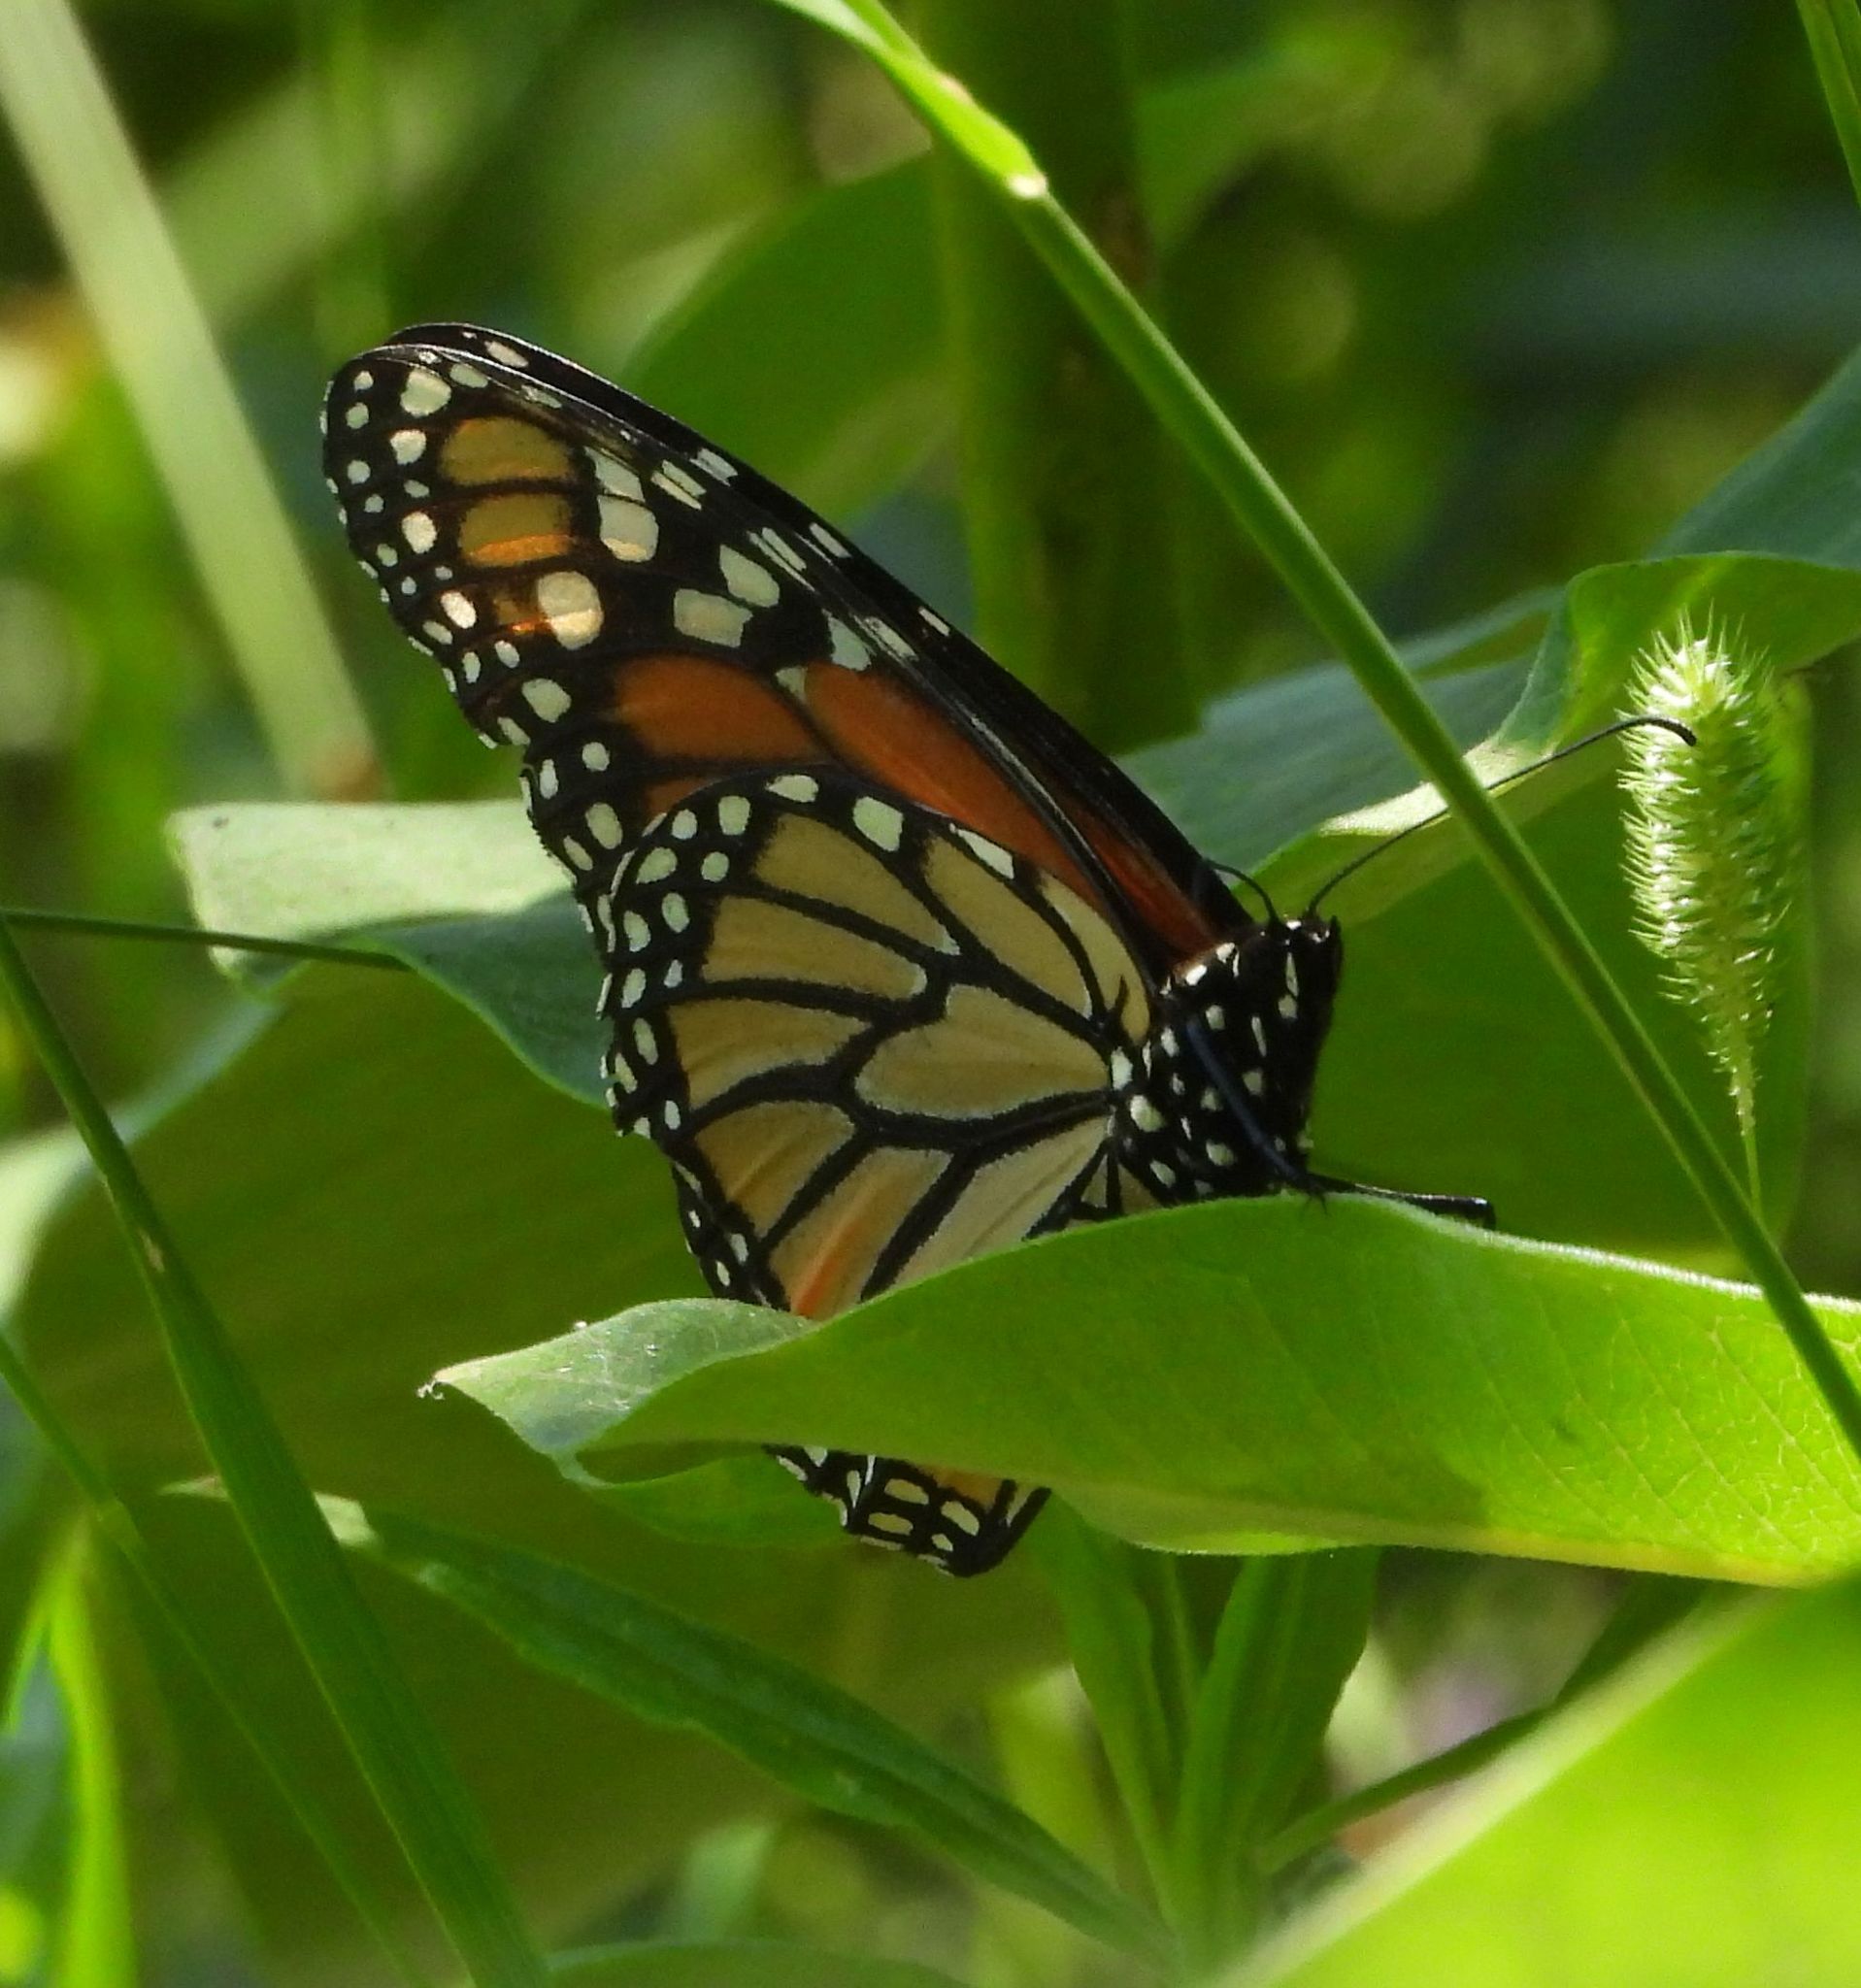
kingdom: Animalia
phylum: Arthropoda
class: Insecta
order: Lepidoptera
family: Nymphalidae
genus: Danaus
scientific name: Danaus plexippus
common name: Monarch
